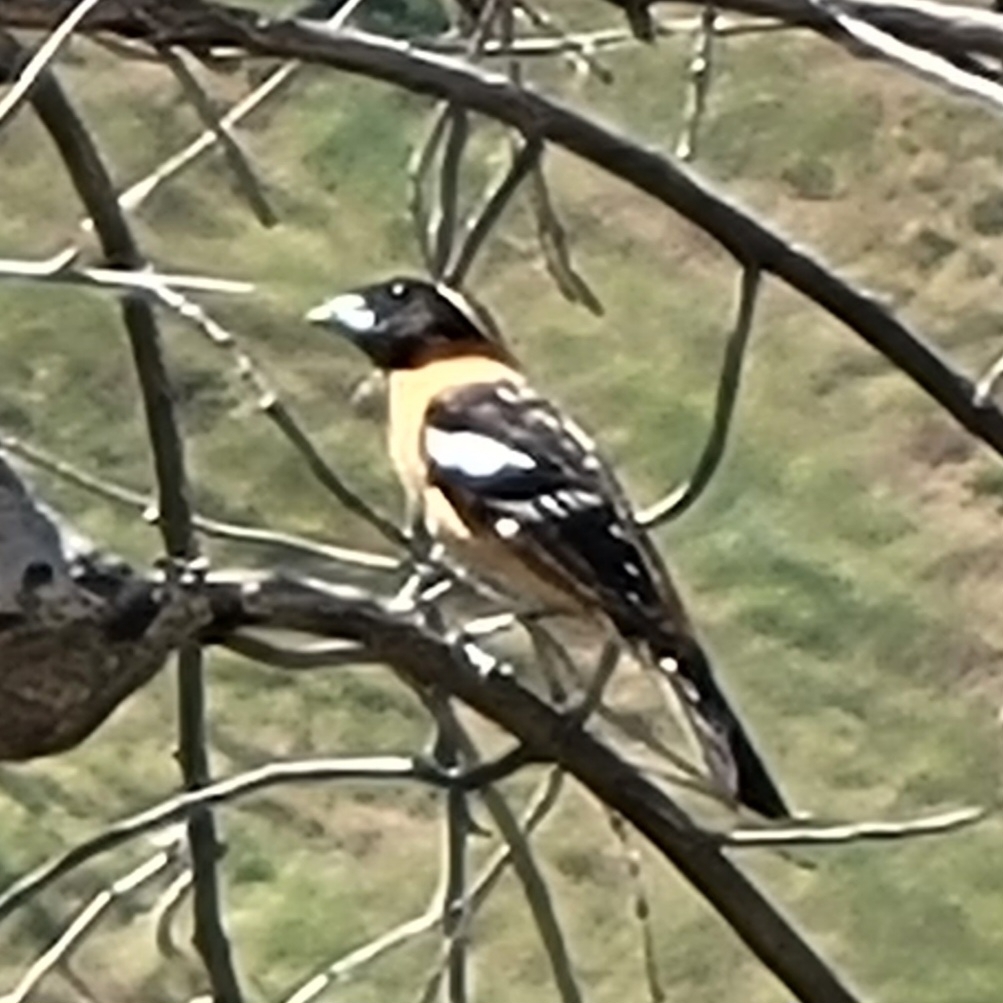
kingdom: Animalia
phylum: Chordata
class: Aves
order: Passeriformes
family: Cardinalidae
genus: Pheucticus
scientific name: Pheucticus melanocephalus
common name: Black-headed grosbeak
